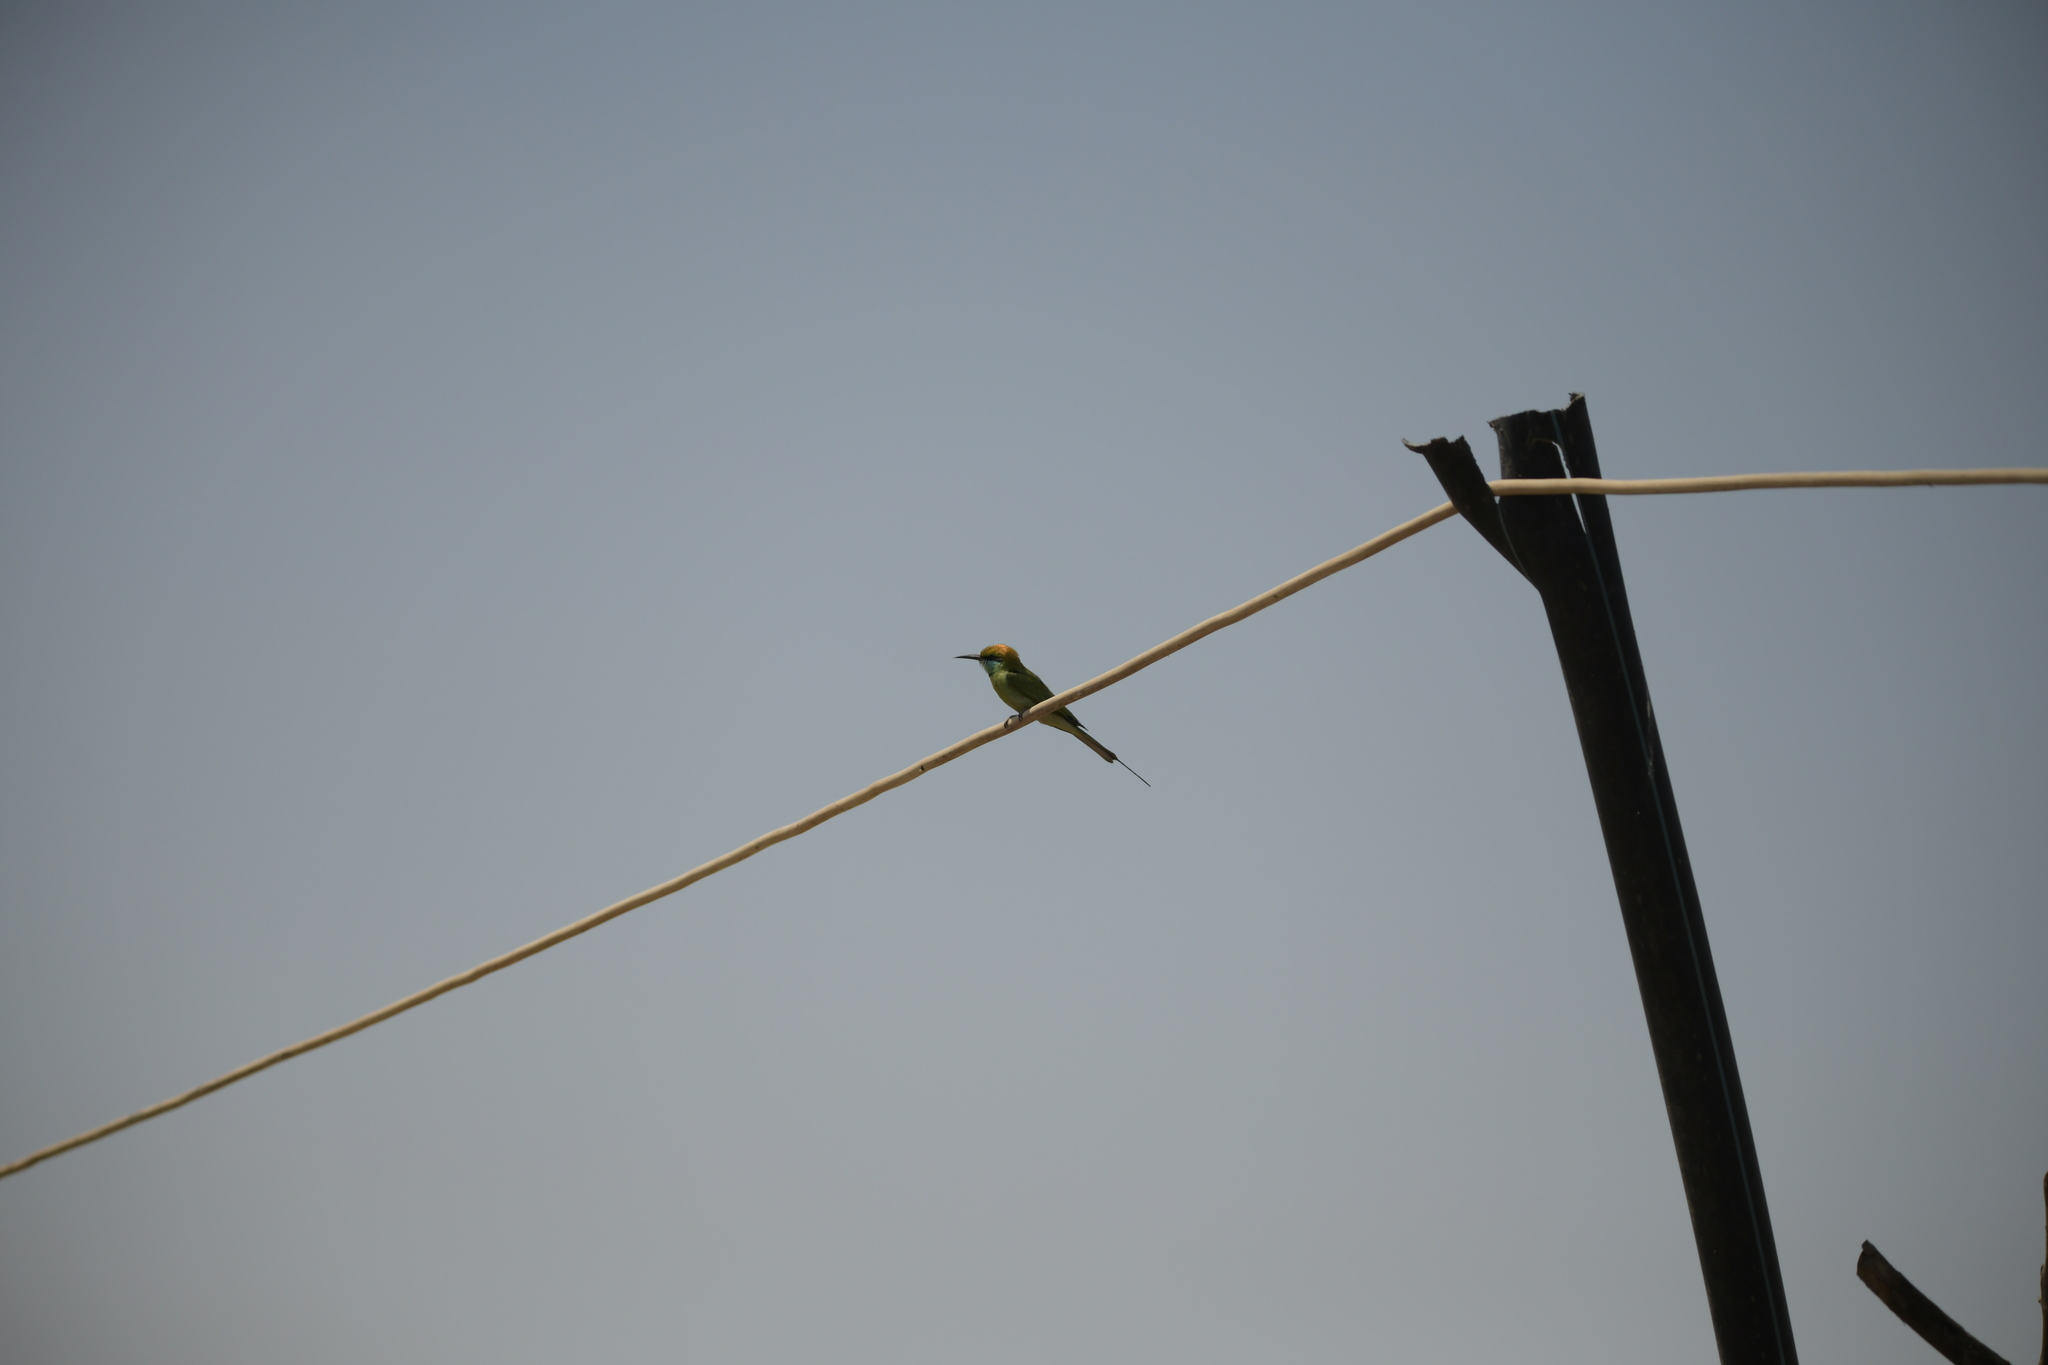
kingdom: Animalia
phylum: Chordata
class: Aves
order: Coraciiformes
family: Meropidae
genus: Merops
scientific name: Merops orientalis
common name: Green bee-eater
